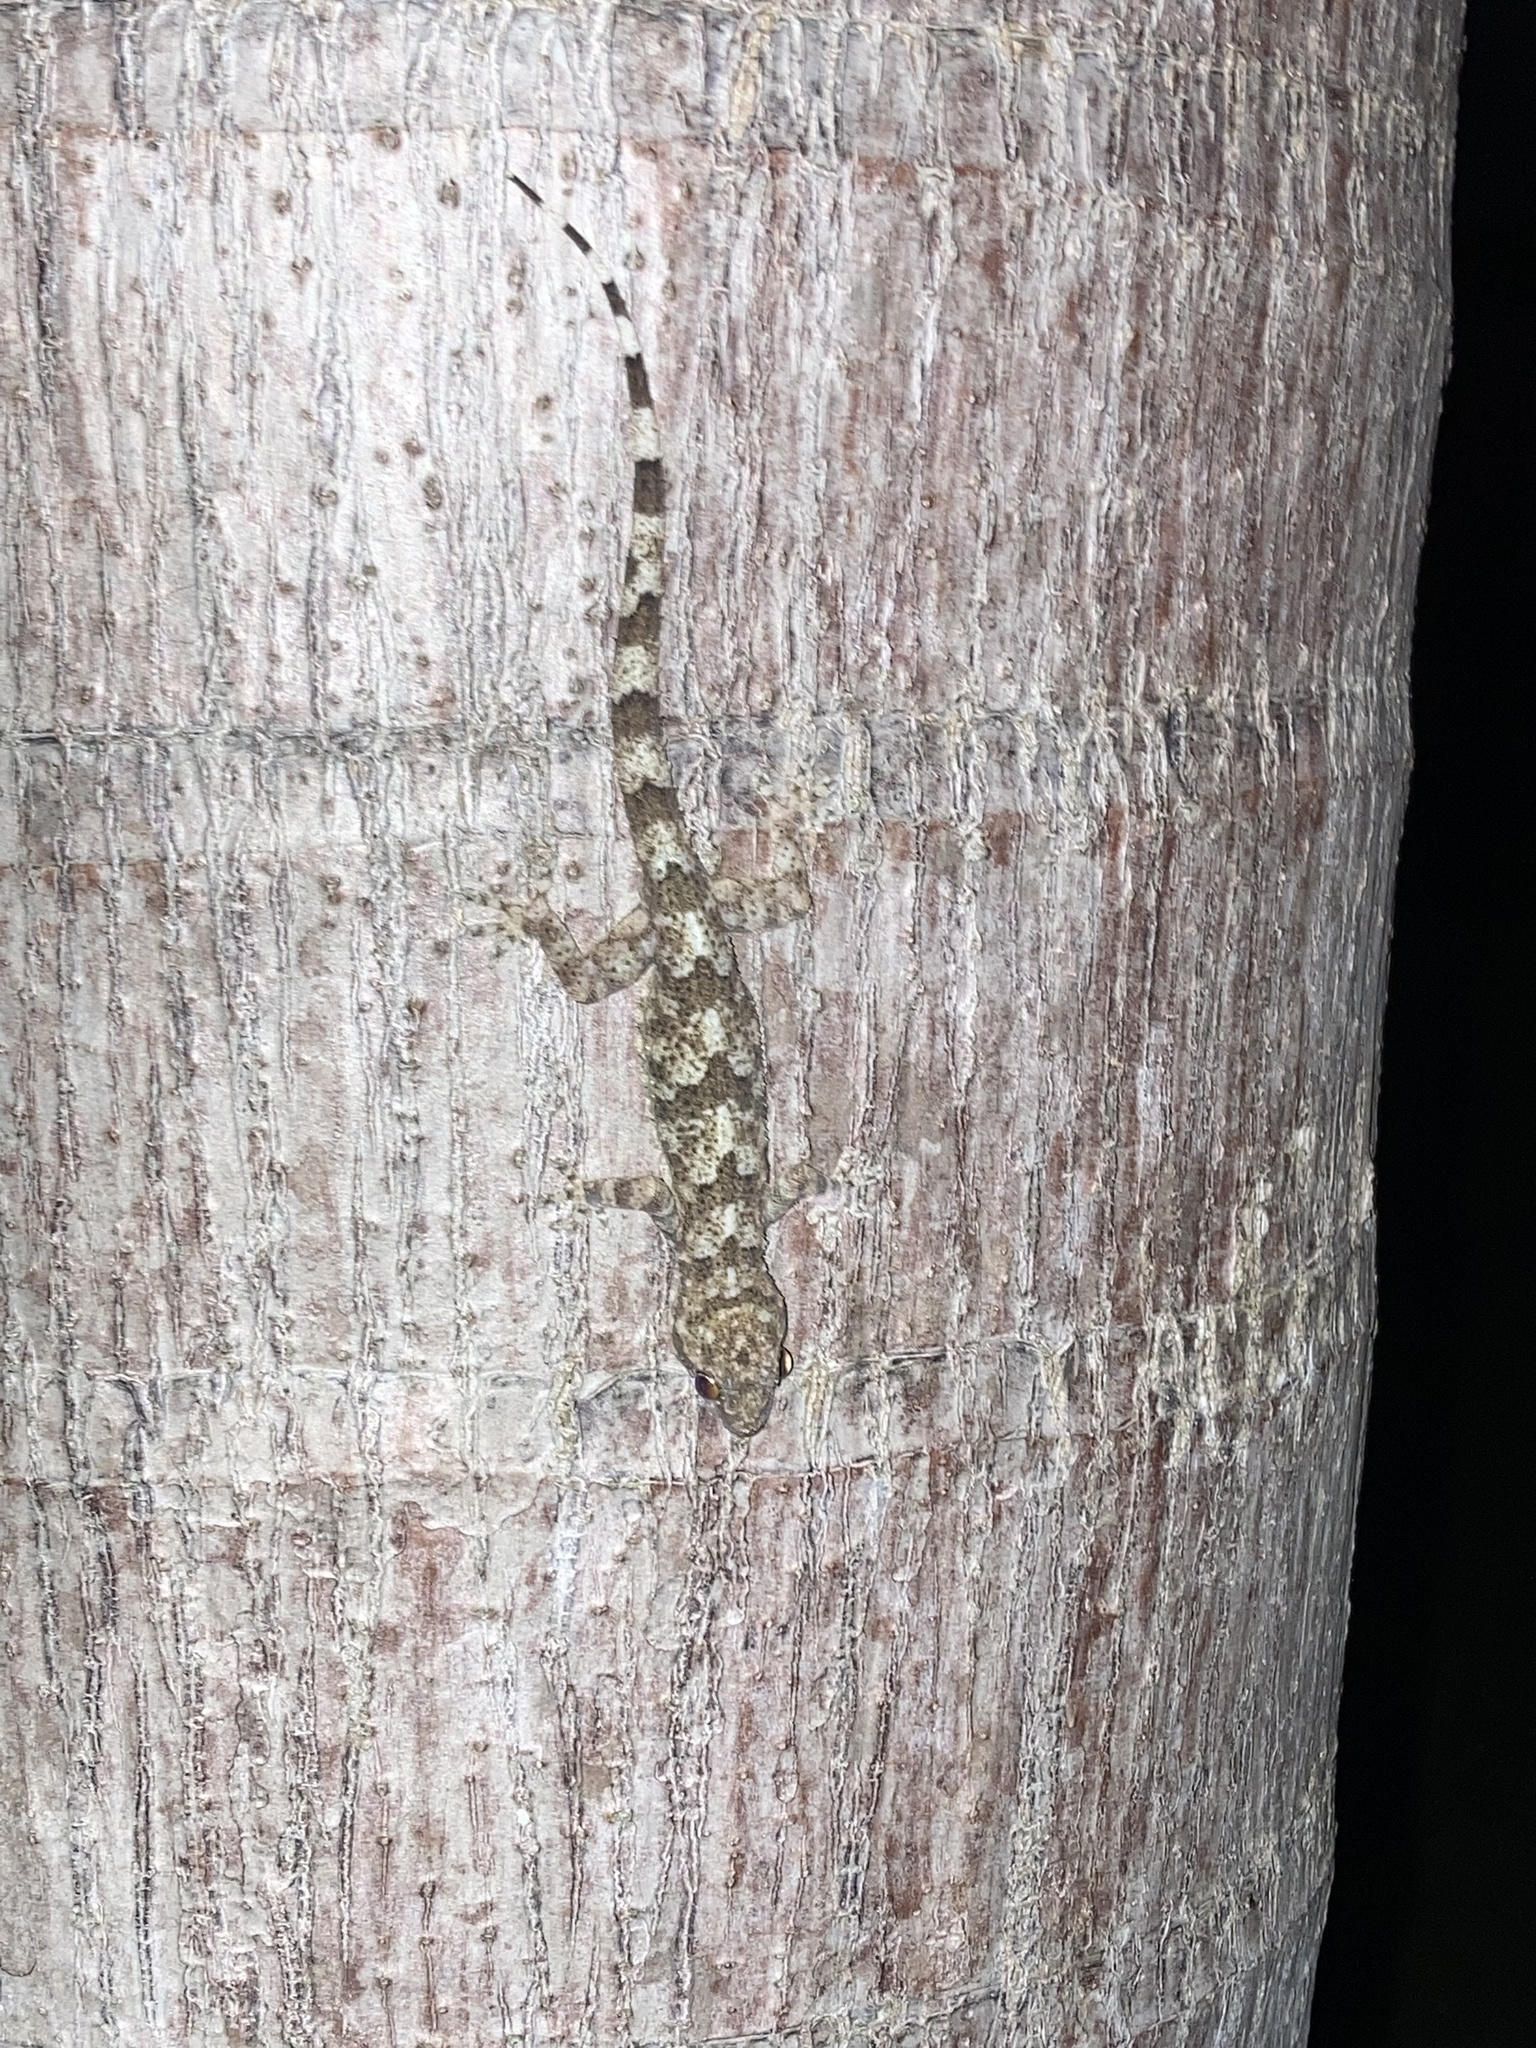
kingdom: Animalia
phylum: Chordata
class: Squamata
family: Gekkonidae
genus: Hemidactylus
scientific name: Hemidactylus mabouia
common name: House gecko
